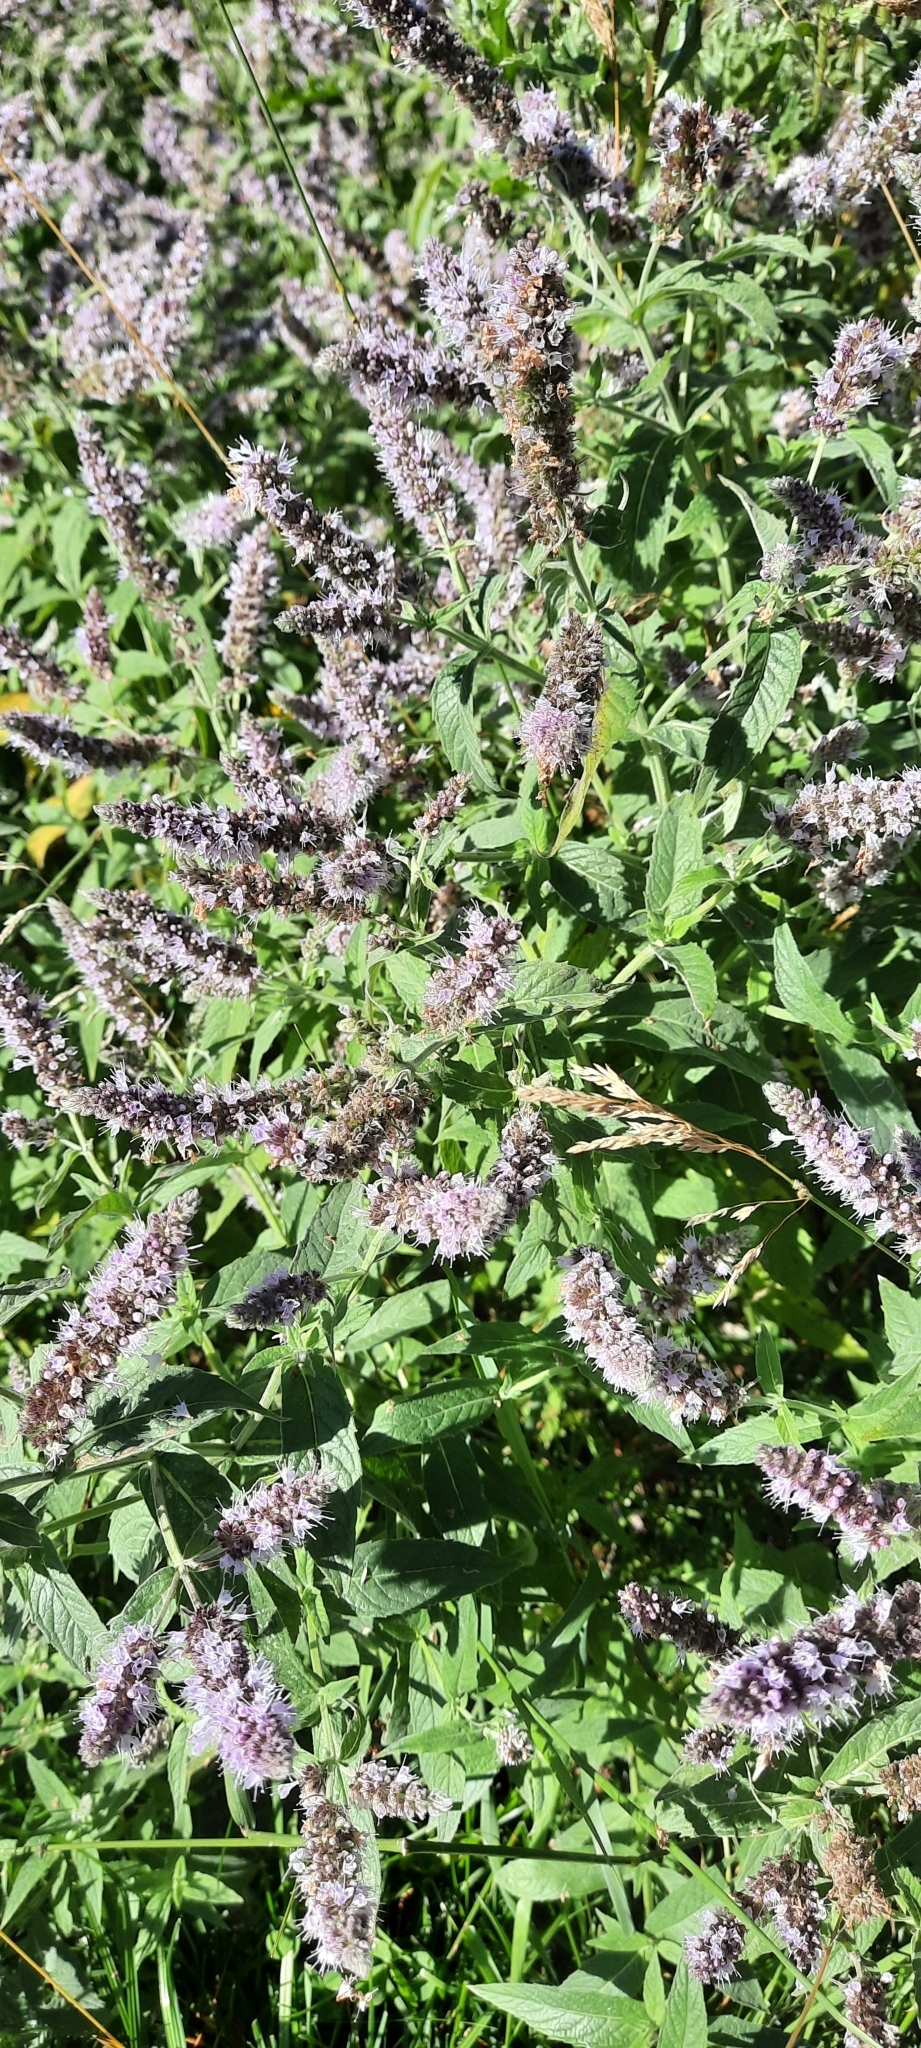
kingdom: Plantae
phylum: Tracheophyta
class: Magnoliopsida
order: Lamiales
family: Lamiaceae
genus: Mentha
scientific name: Mentha longifolia
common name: Horse mint
